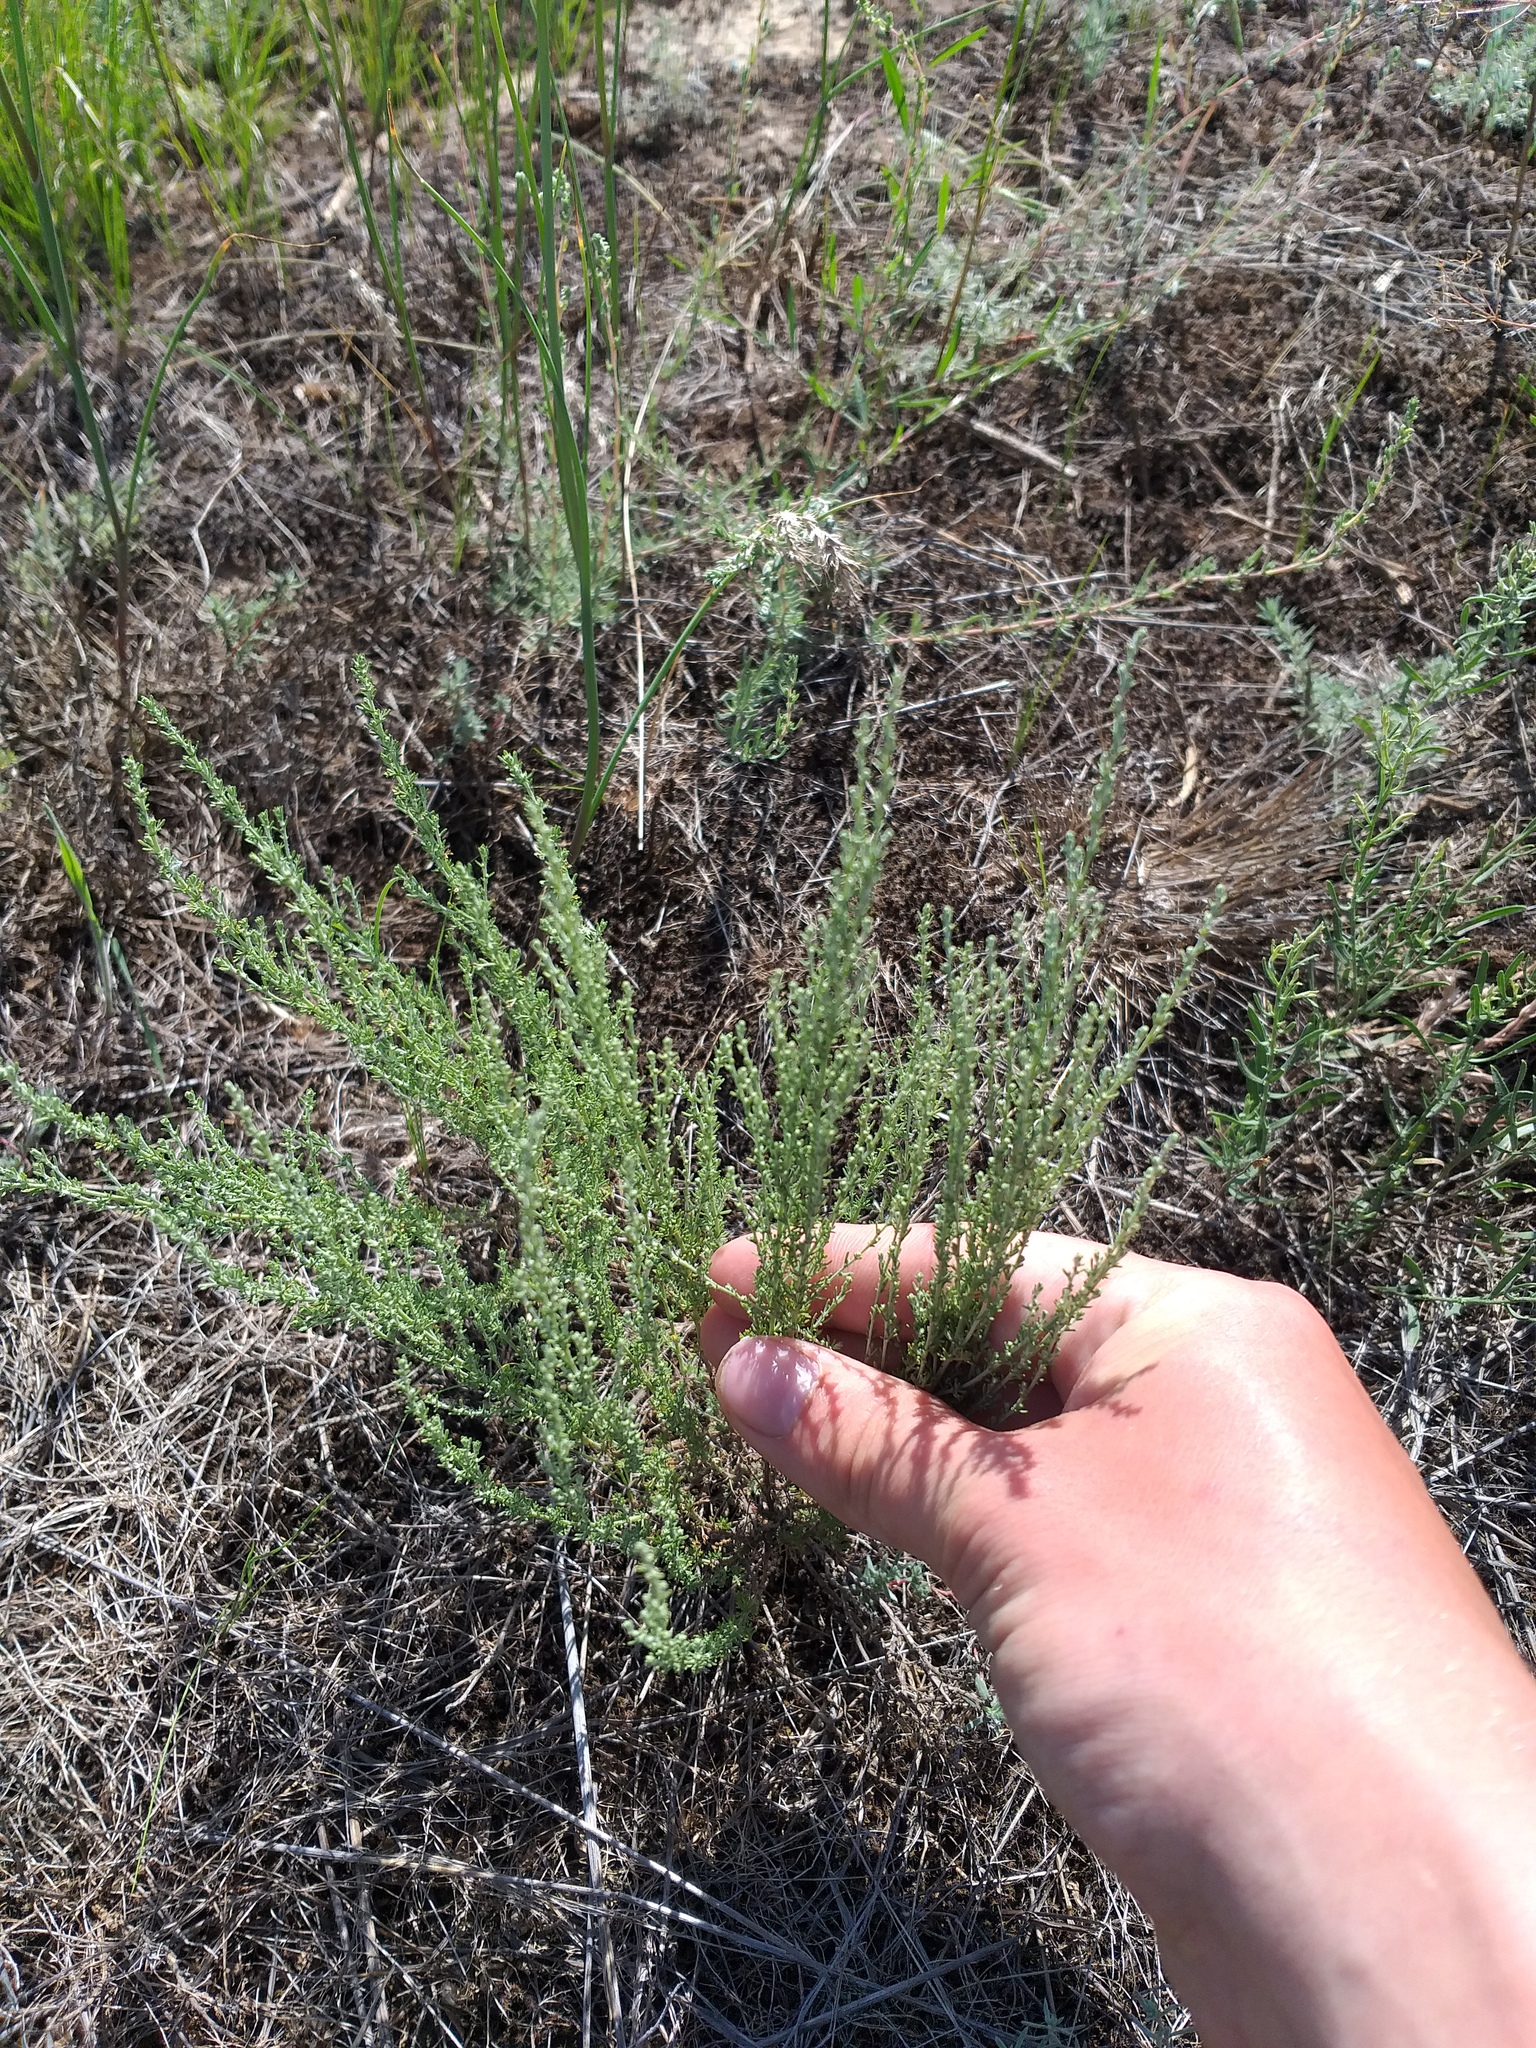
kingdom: Plantae
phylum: Tracheophyta
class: Magnoliopsida
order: Asterales
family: Asteraceae
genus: Artemisia
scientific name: Artemisia pauciflora
